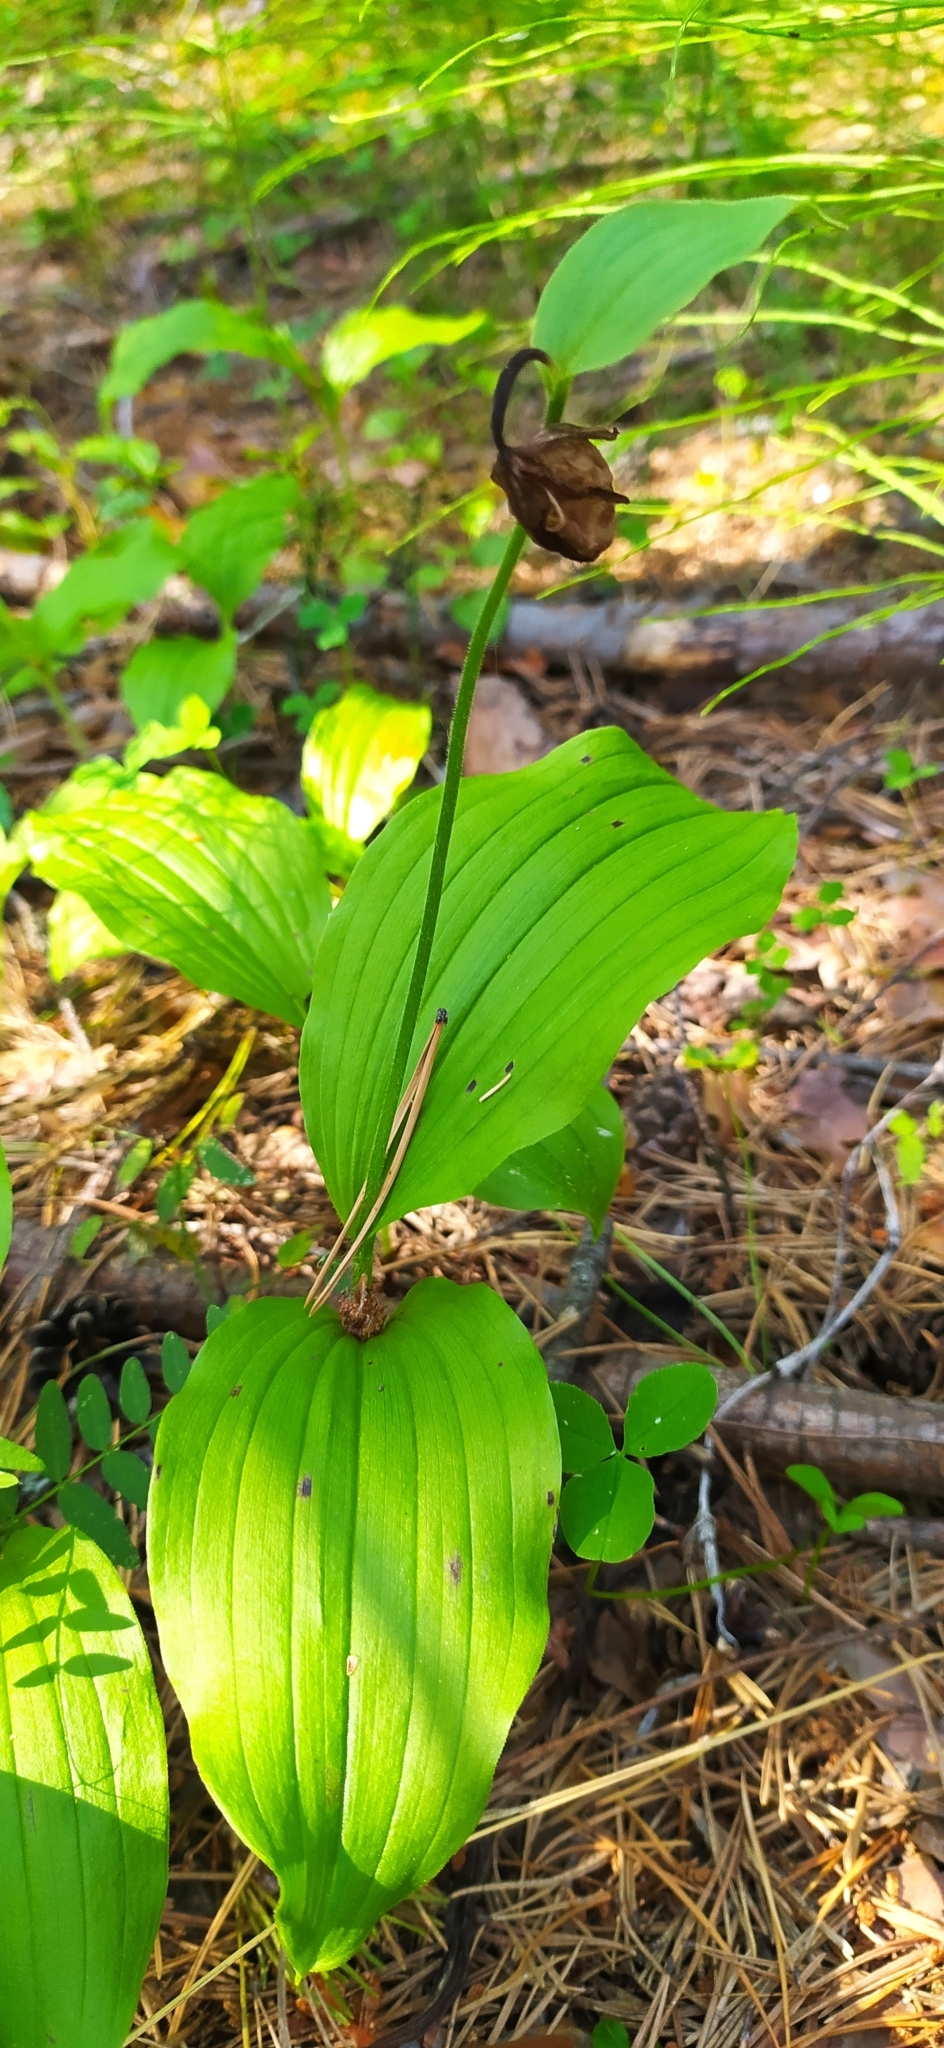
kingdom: Plantae
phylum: Tracheophyta
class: Liliopsida
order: Asparagales
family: Orchidaceae
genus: Cypripedium
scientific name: Cypripedium guttatum
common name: Pink lady slipper
